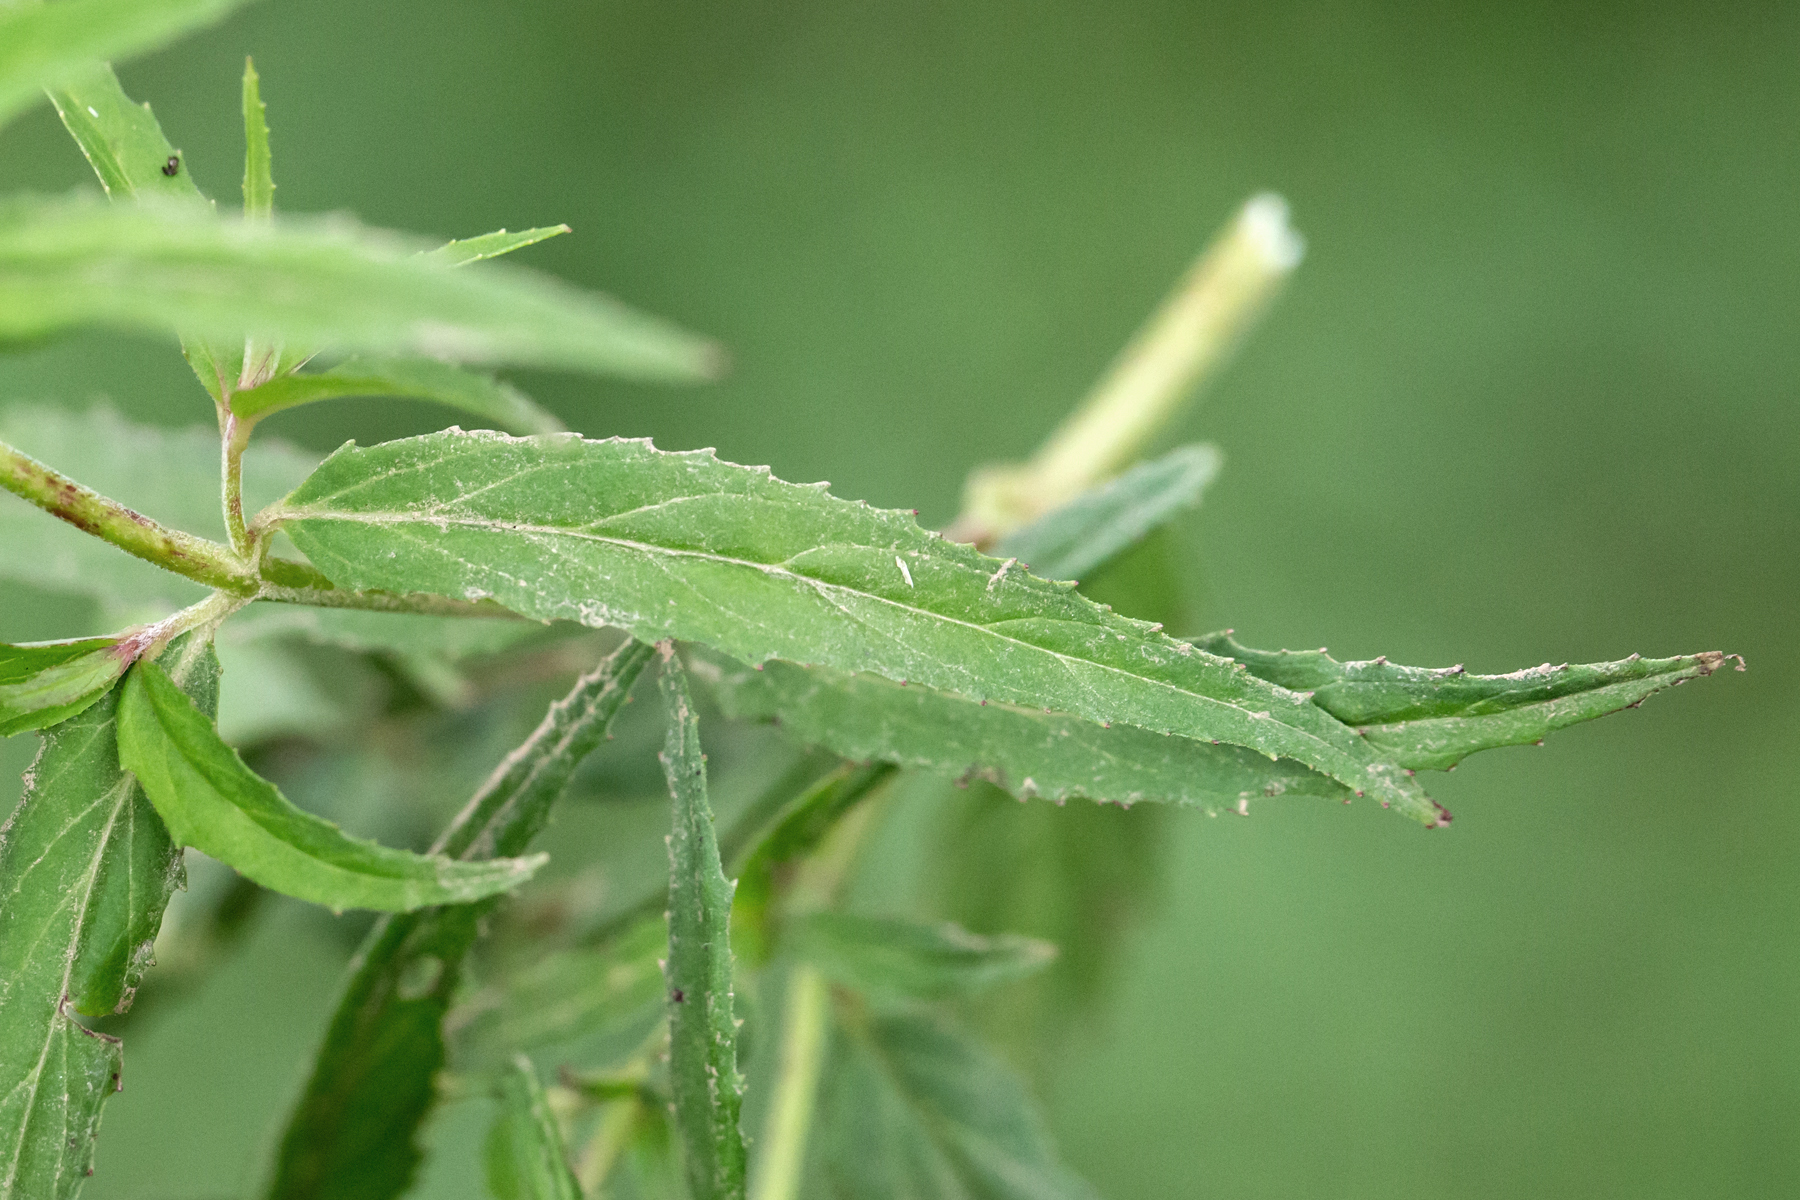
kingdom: Plantae
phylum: Tracheophyta
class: Magnoliopsida
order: Myrtales
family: Onagraceae
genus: Epilobium
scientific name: Epilobium coloratum
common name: Bronze willowherb
